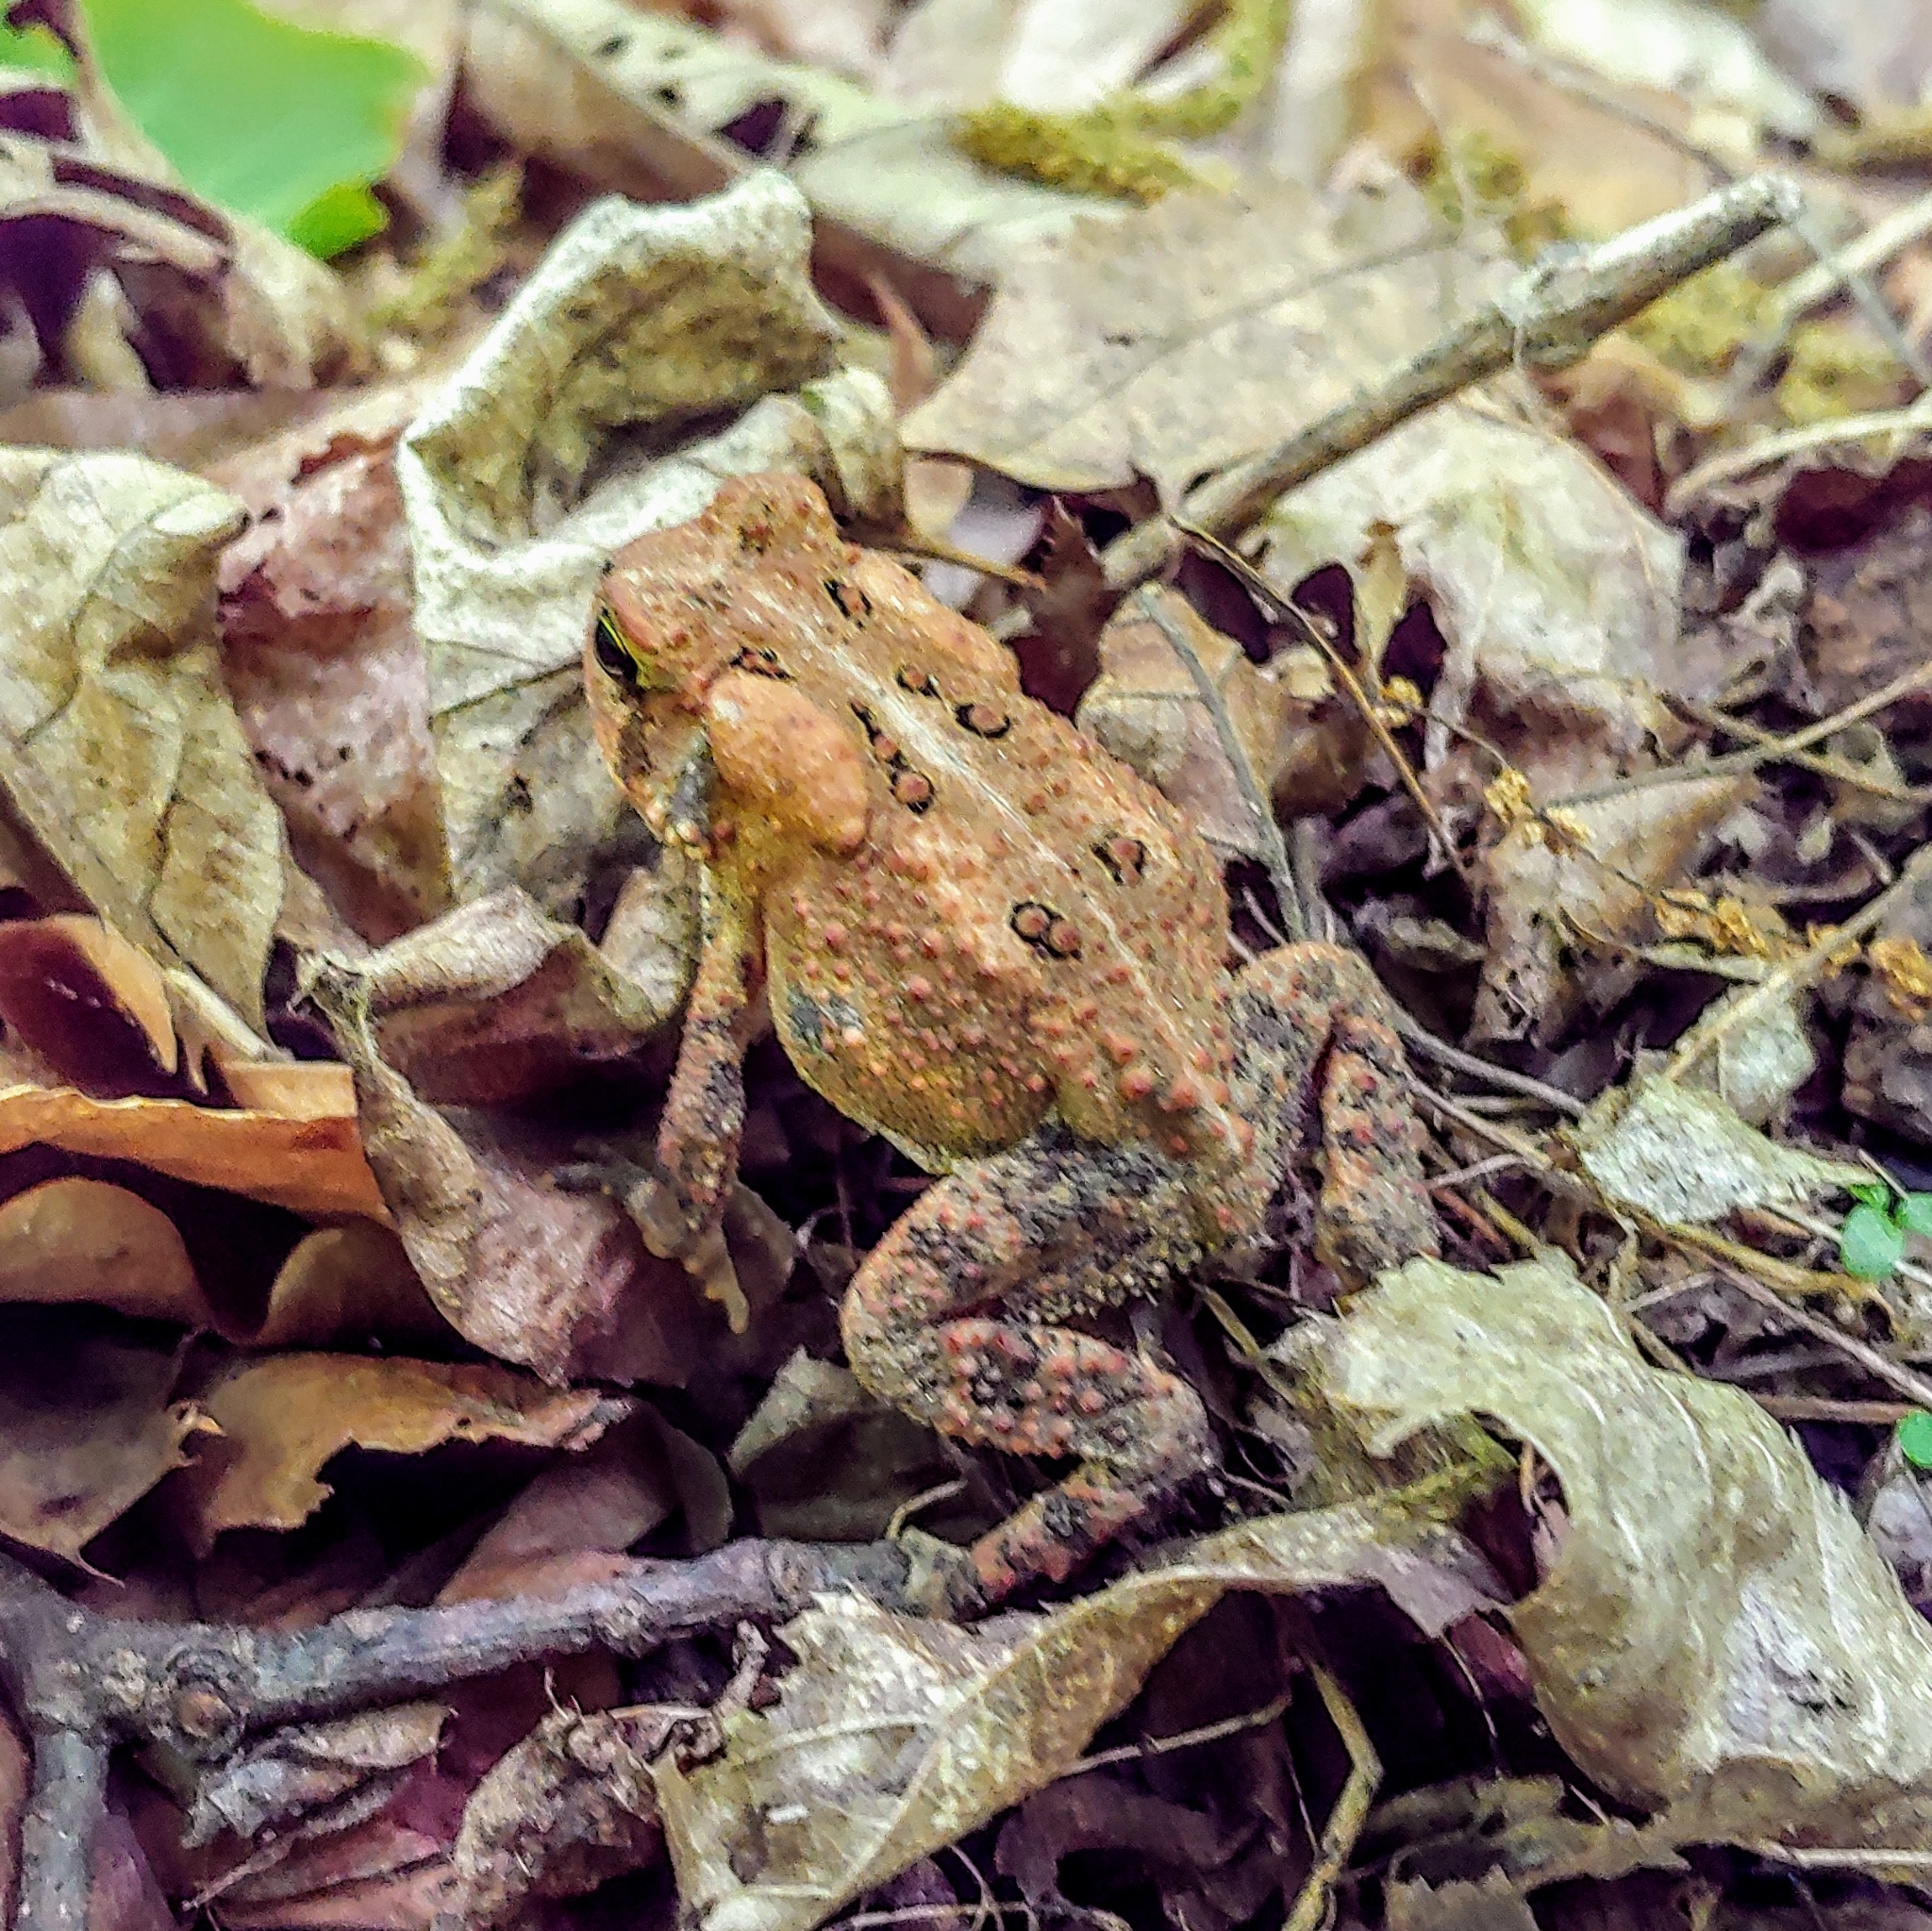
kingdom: Animalia
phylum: Chordata
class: Amphibia
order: Anura
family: Bufonidae
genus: Anaxyrus
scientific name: Anaxyrus americanus
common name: American toad
